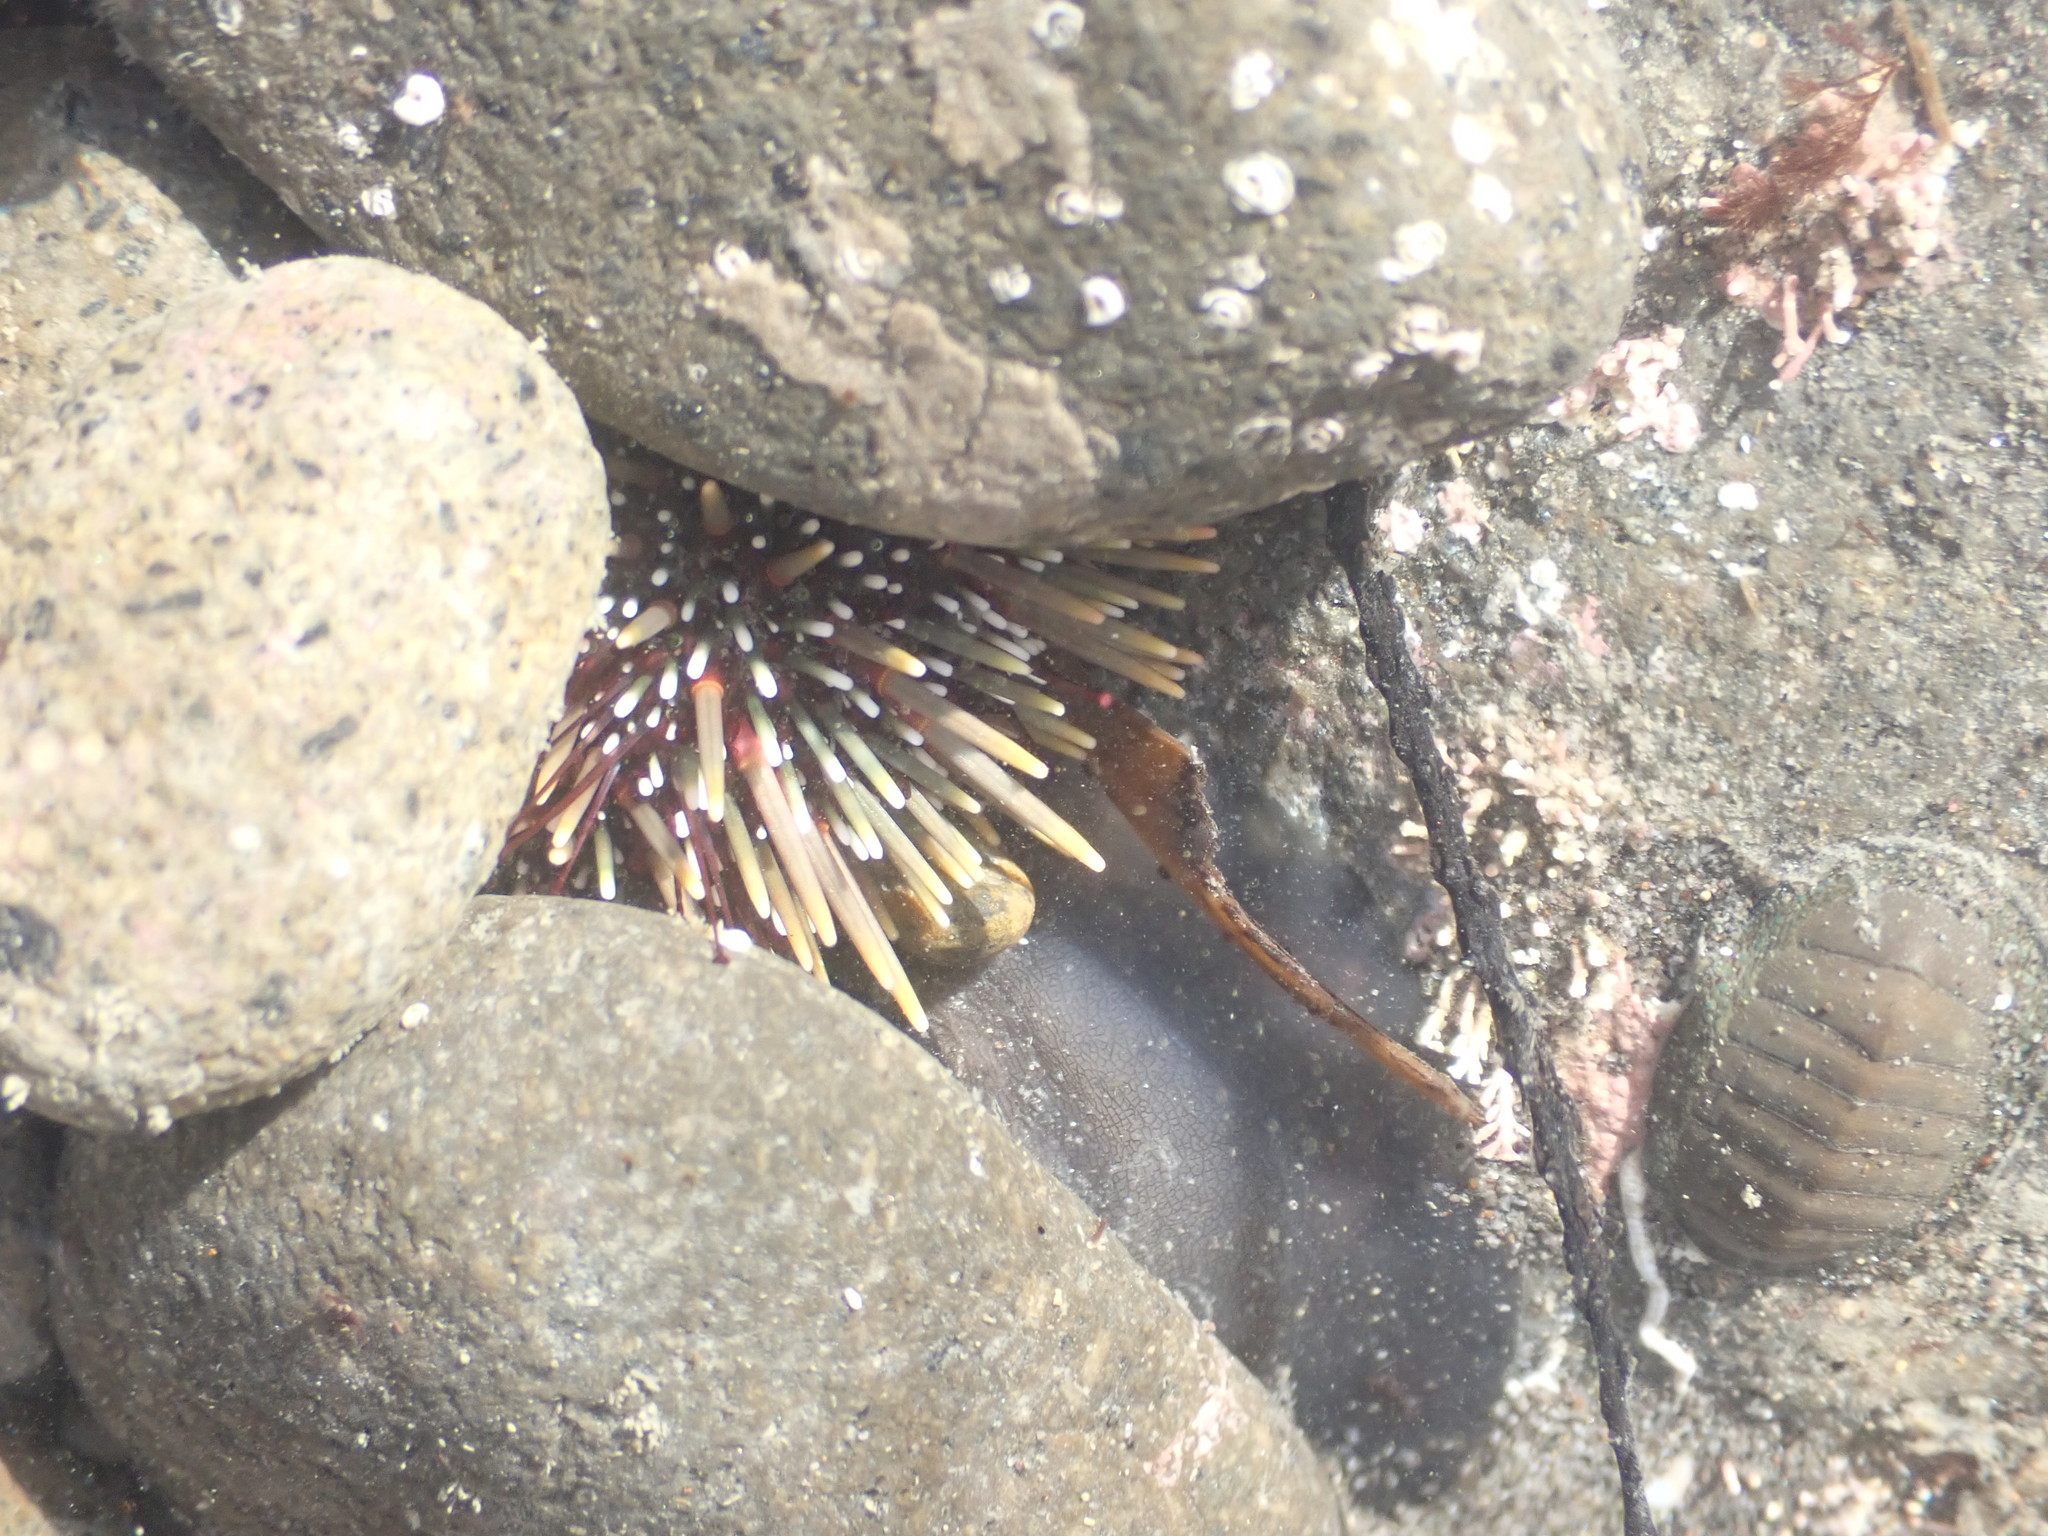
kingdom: Animalia
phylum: Echinodermata
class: Echinoidea
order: Camarodonta
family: Echinometridae
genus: Evechinus
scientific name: Evechinus chloroticus
